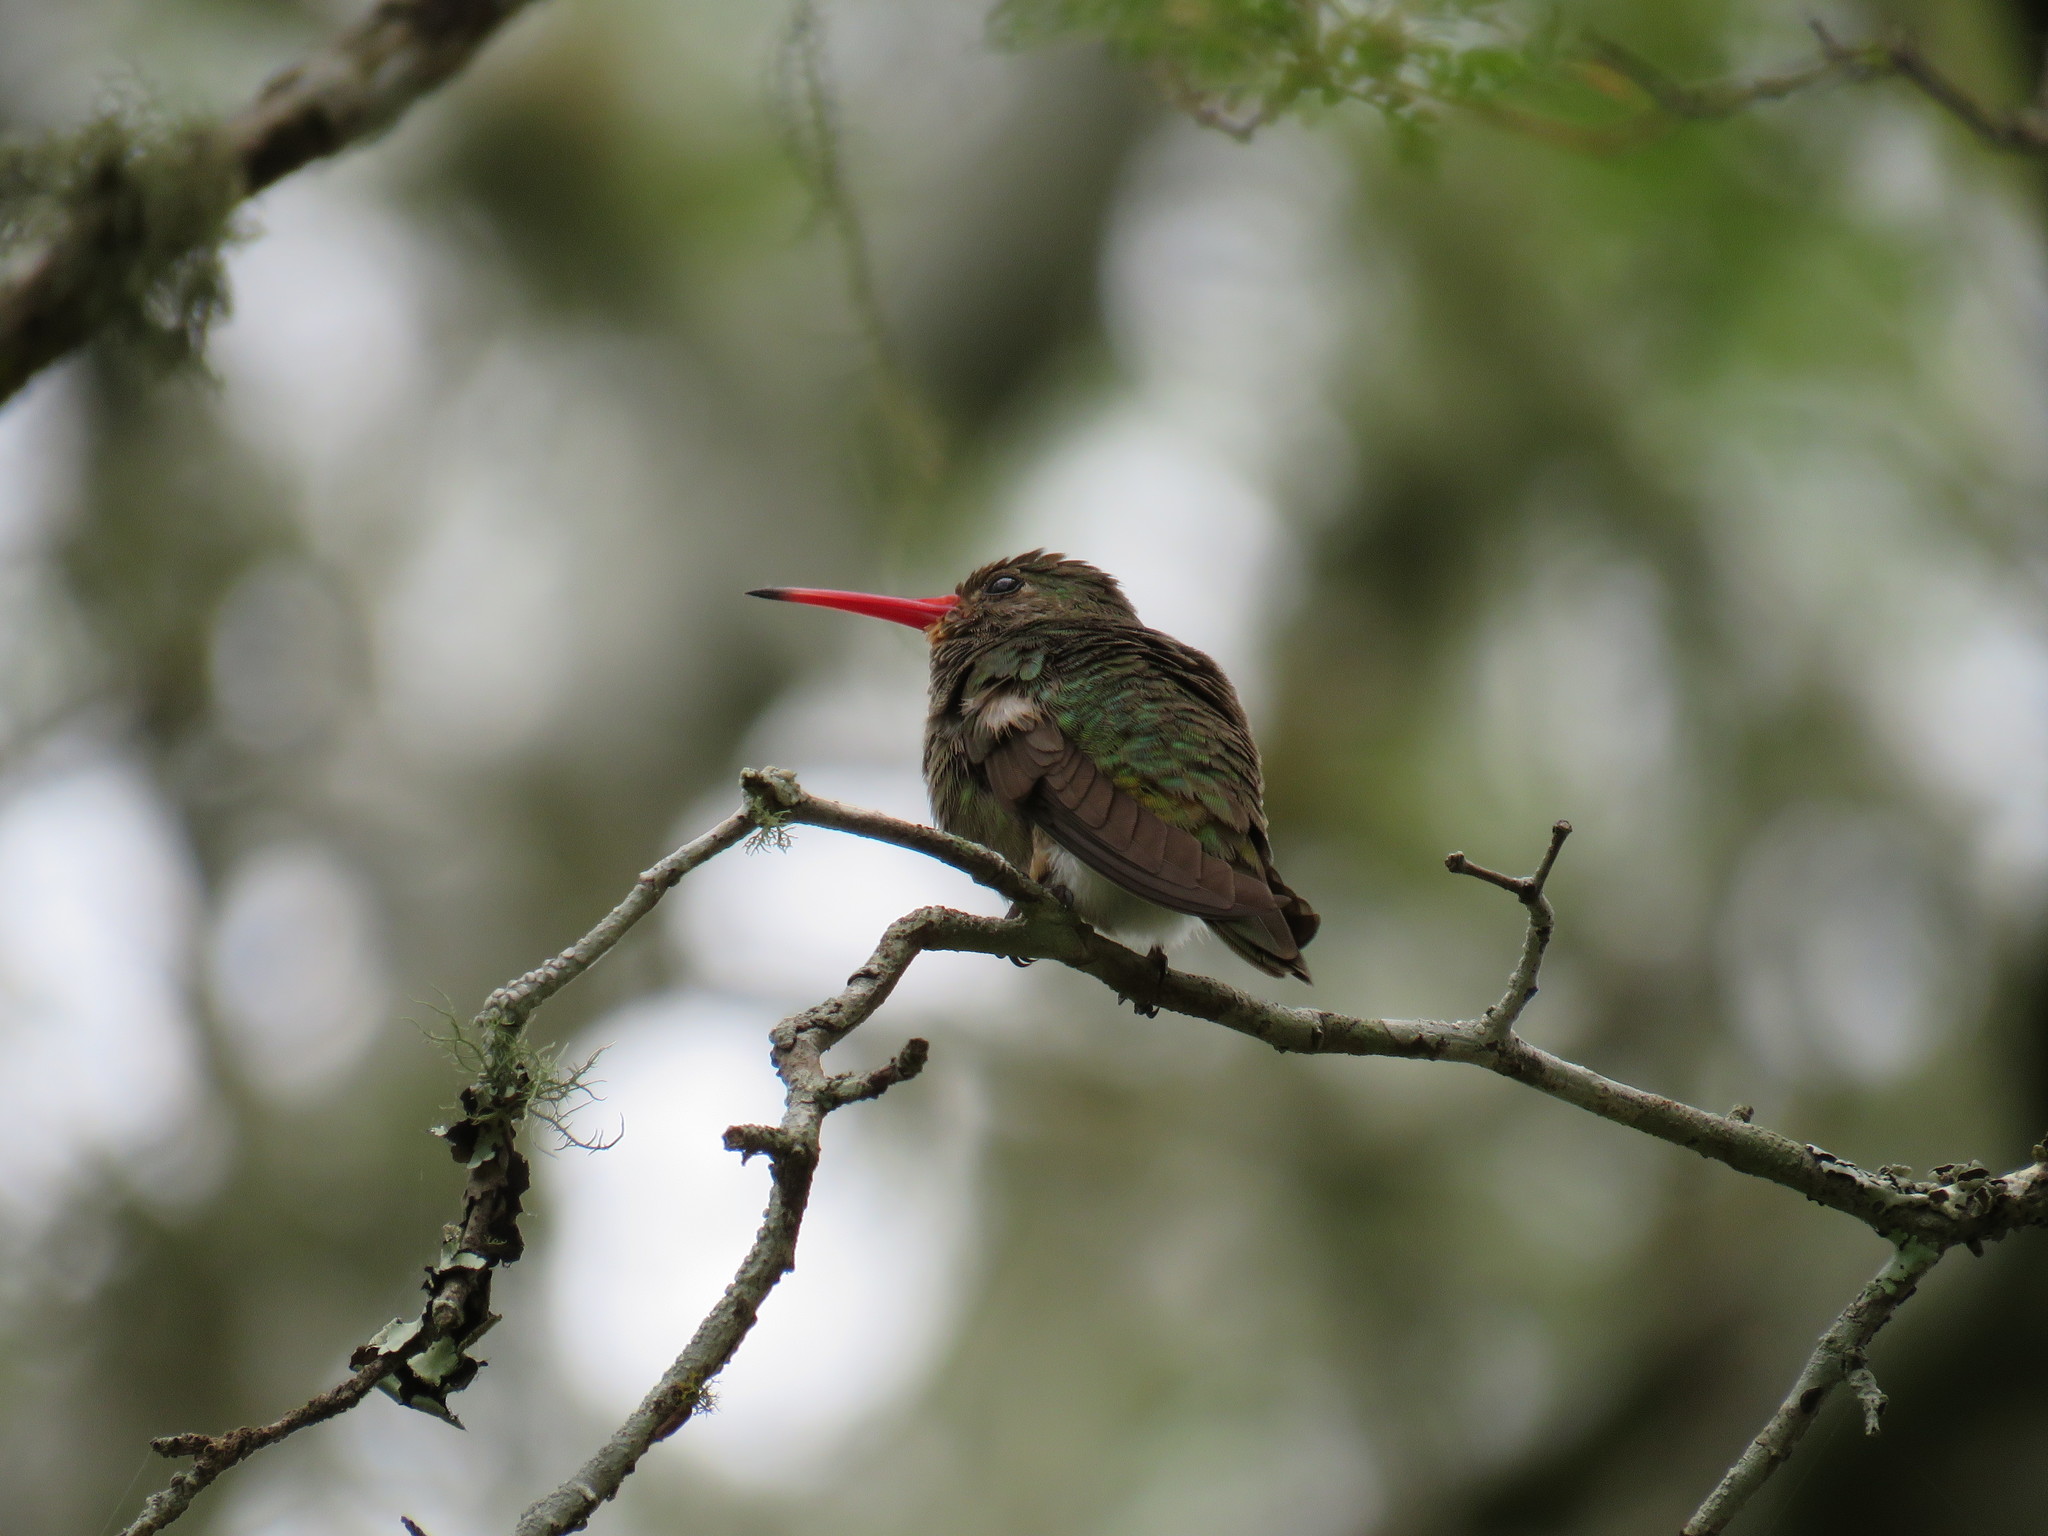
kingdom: Animalia
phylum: Chordata
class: Aves
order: Apodiformes
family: Trochilidae
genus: Hylocharis
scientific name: Hylocharis chrysura
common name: Gilded sapphire
